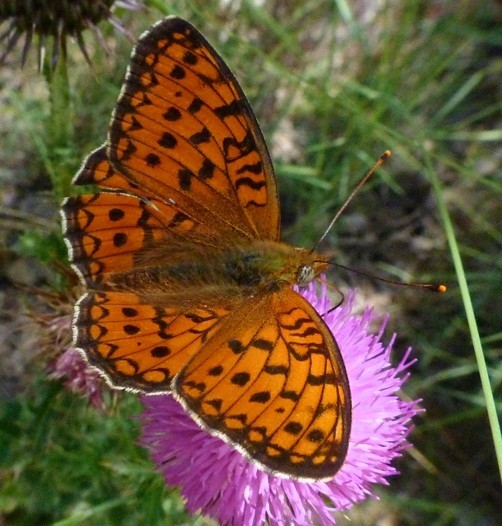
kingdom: Animalia
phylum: Arthropoda
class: Insecta
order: Lepidoptera
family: Nymphalidae
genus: Fabriciana
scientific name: Fabriciana niobe
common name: Niobe fritillary
